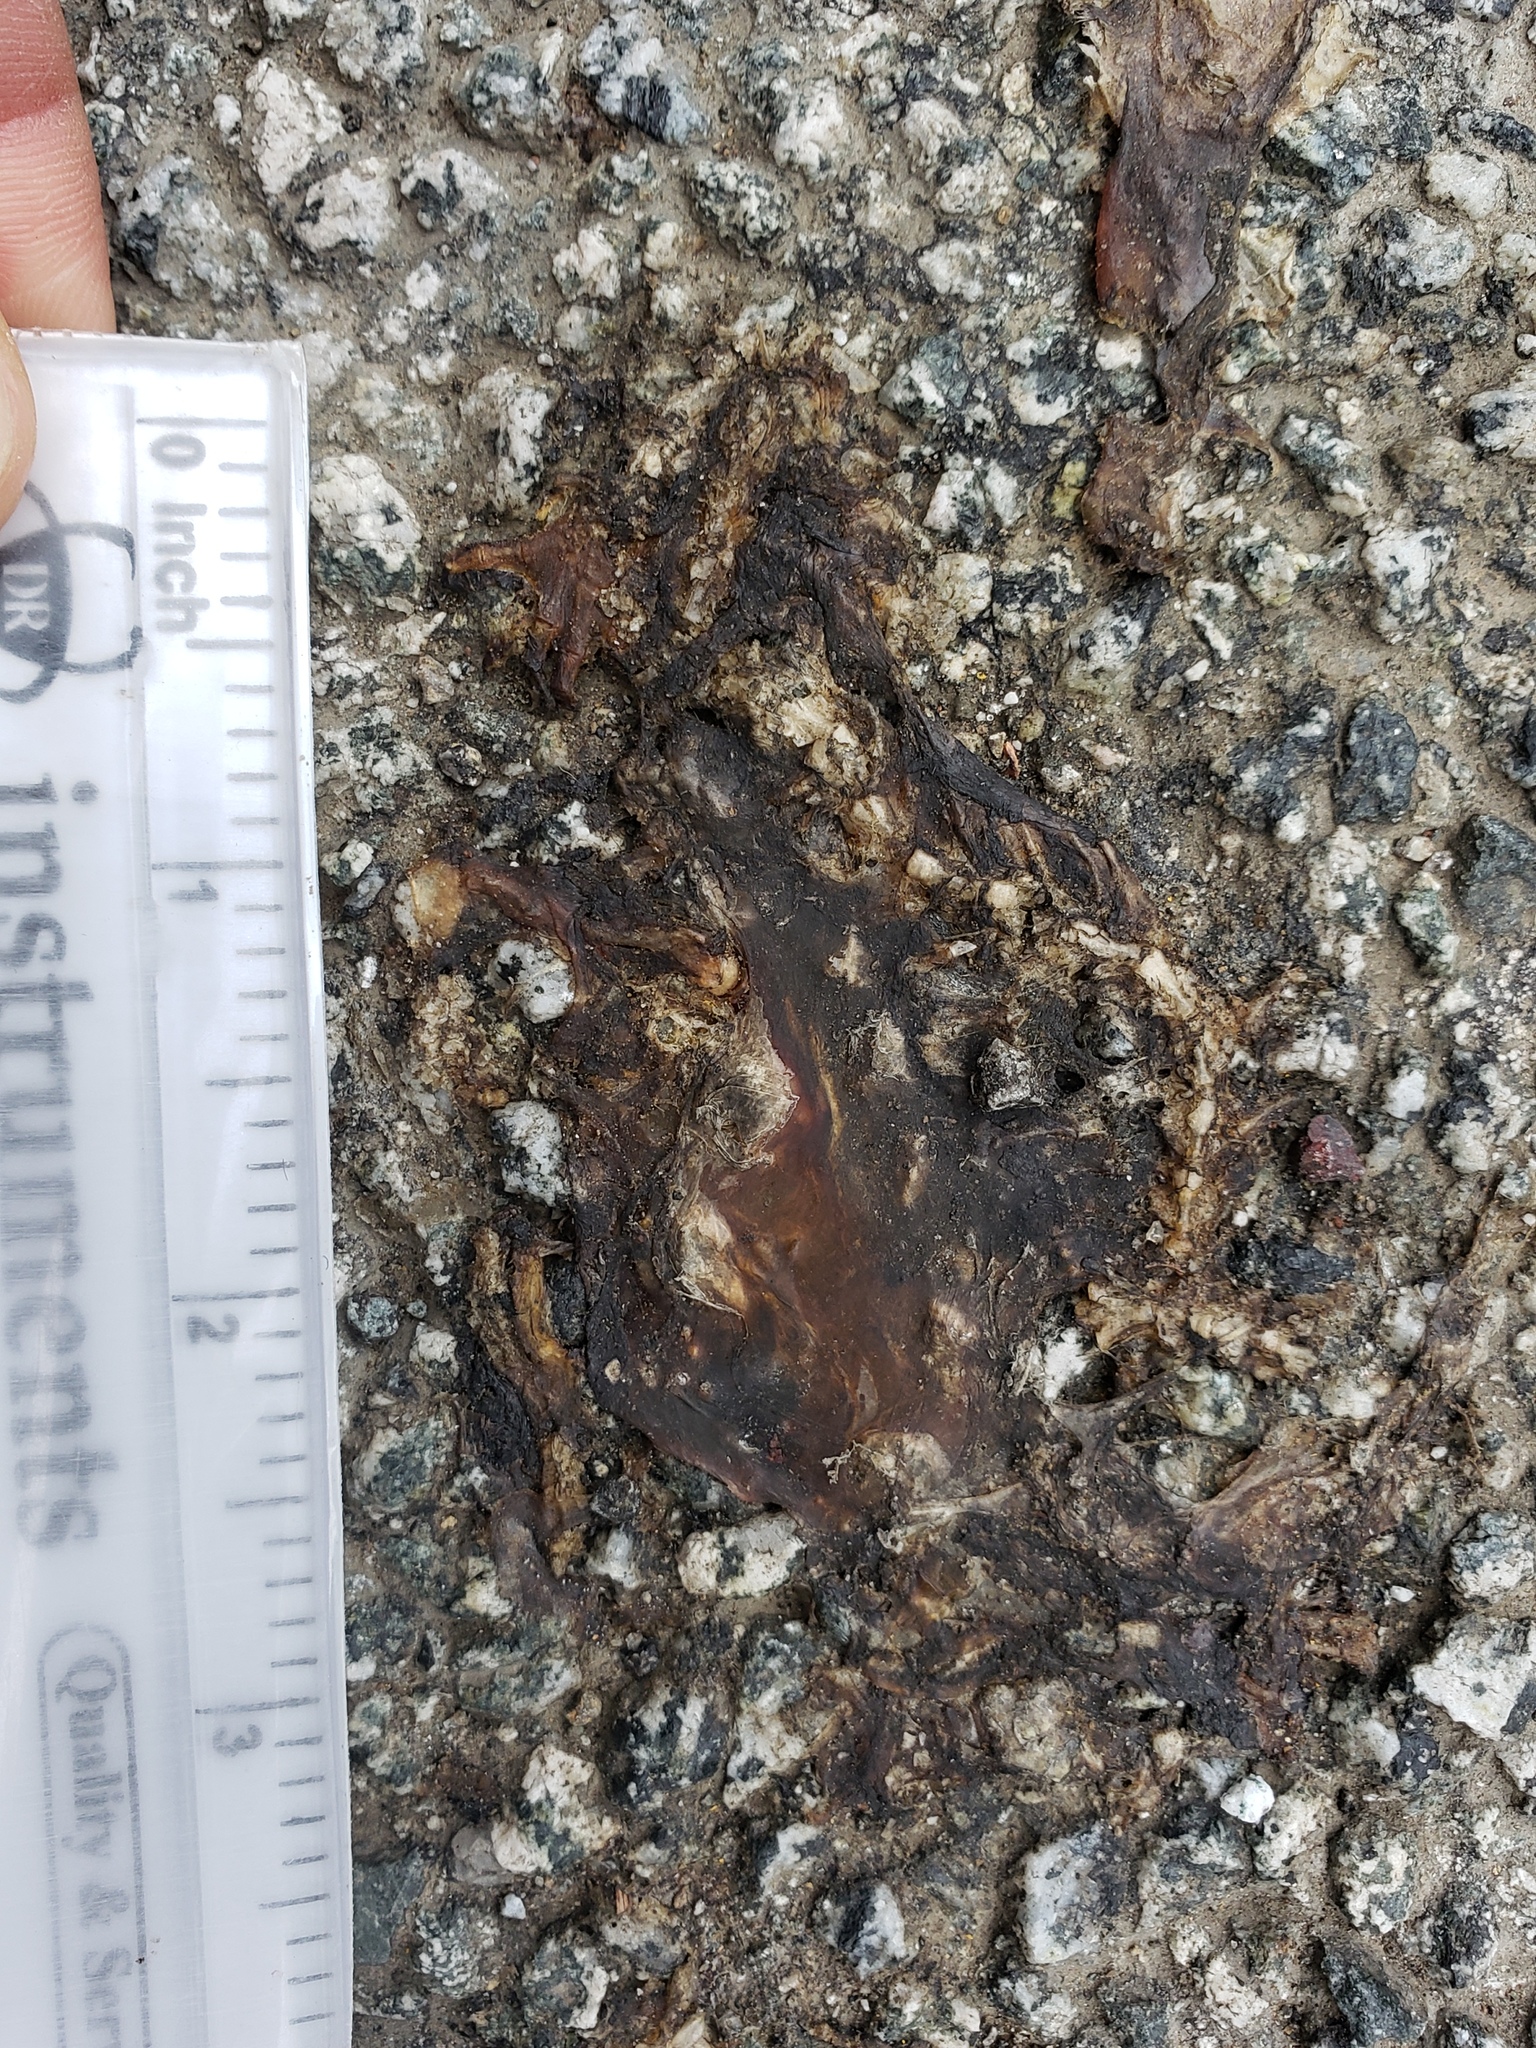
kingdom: Animalia
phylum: Chordata
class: Amphibia
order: Caudata
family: Salamandridae
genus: Taricha
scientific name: Taricha
